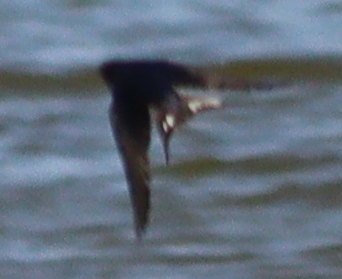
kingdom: Animalia
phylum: Chordata
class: Aves
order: Passeriformes
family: Hirundinidae
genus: Hirundo
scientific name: Hirundo rustica
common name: Barn swallow
